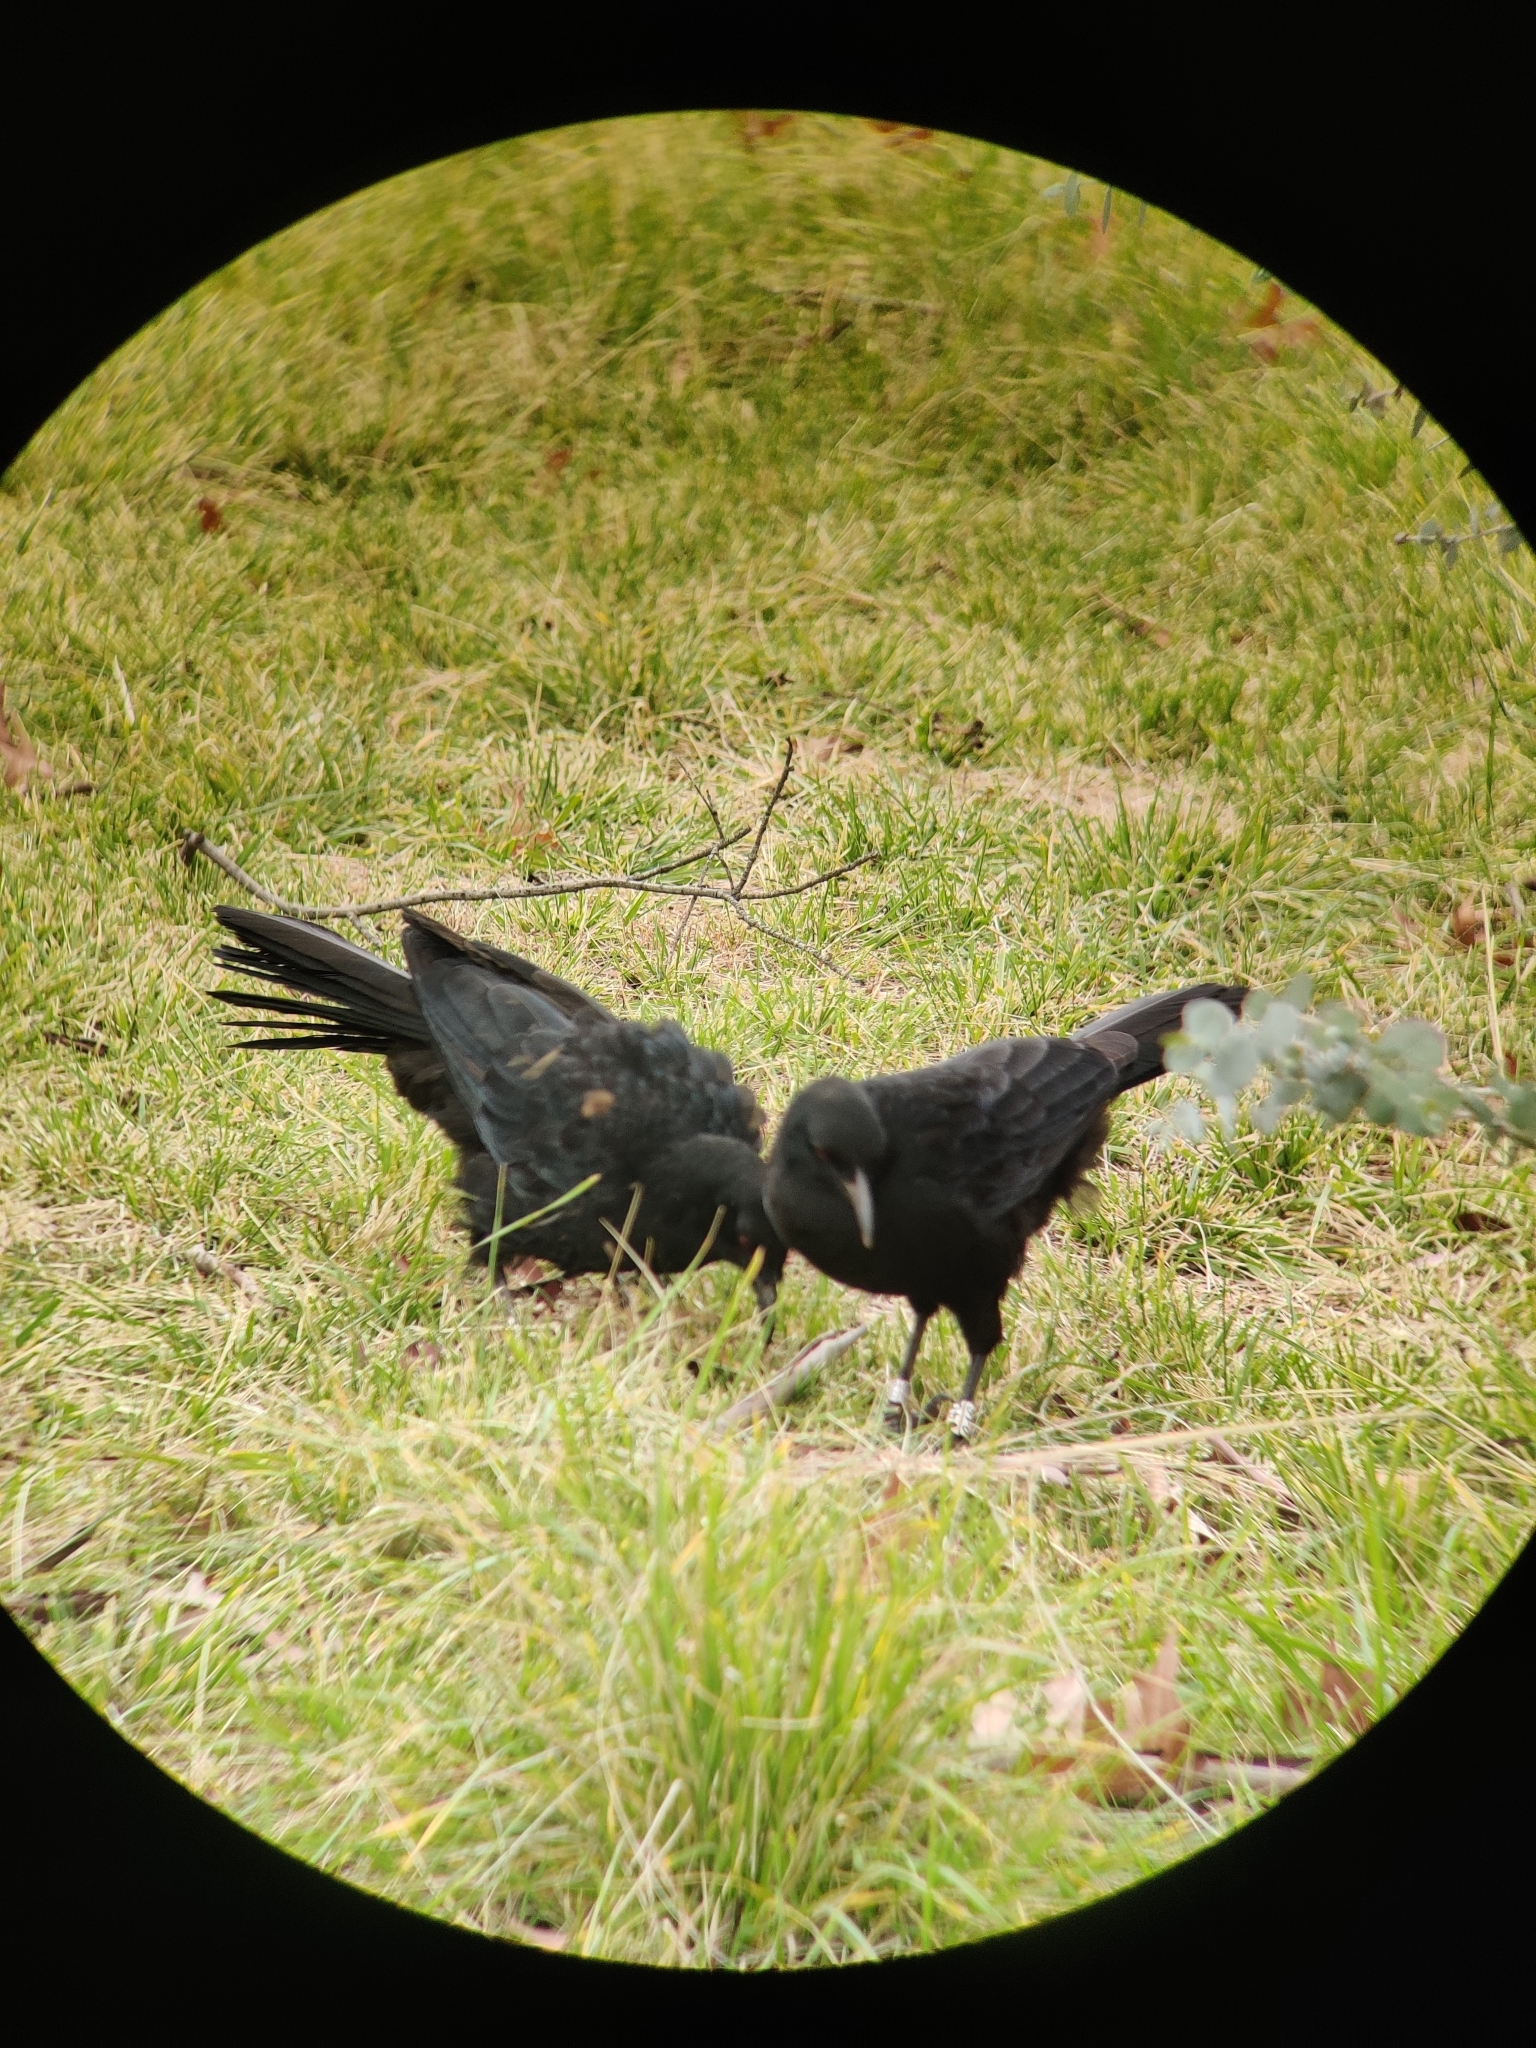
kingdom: Animalia
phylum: Chordata
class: Aves
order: Passeriformes
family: Corcoracidae
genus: Corcorax
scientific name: Corcorax melanoramphos
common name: White-winged chough
